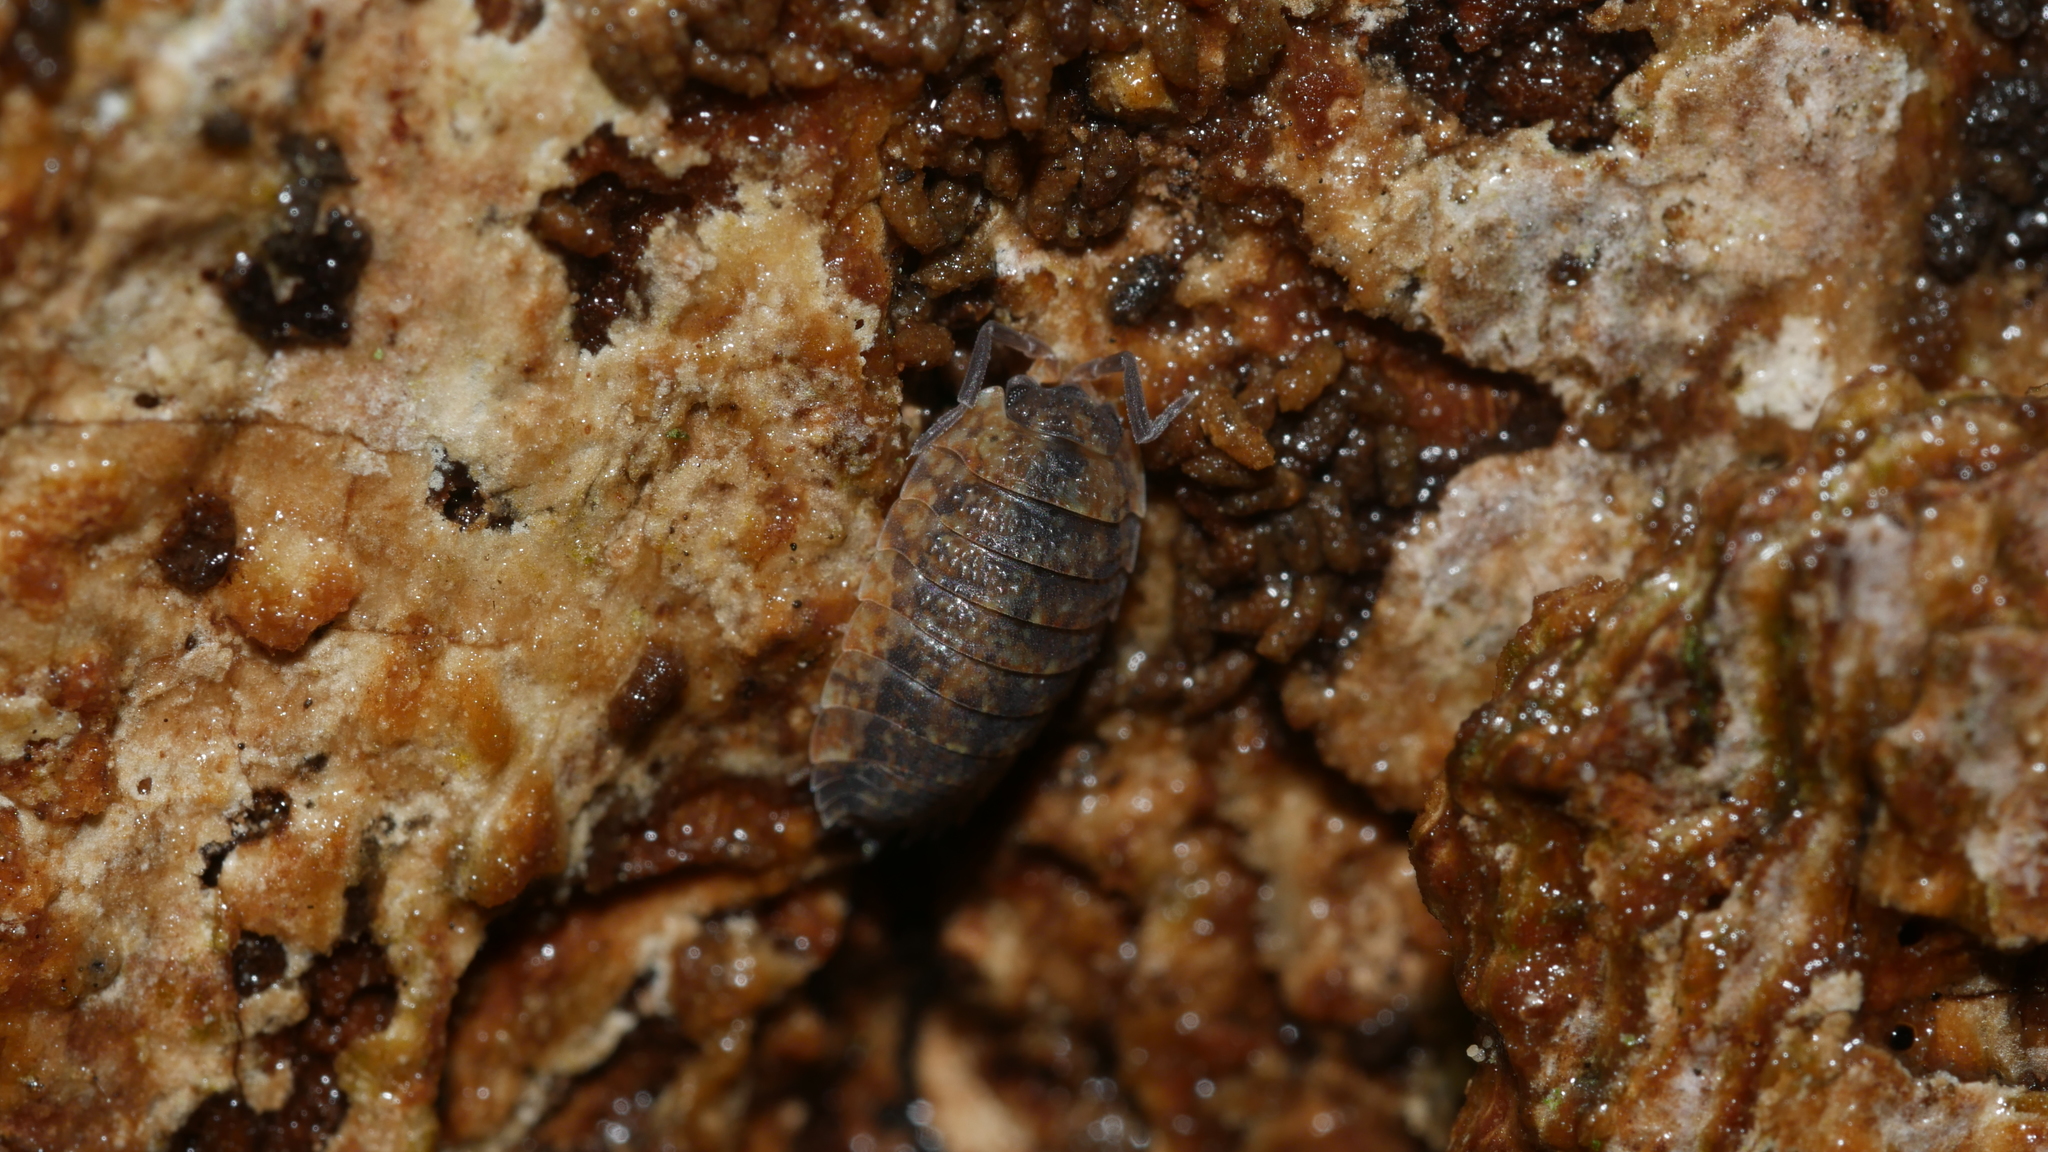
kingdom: Animalia
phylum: Arthropoda
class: Malacostraca
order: Isopoda
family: Porcellionidae
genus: Porcellio
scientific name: Porcellio scaber
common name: Common rough woodlouse
